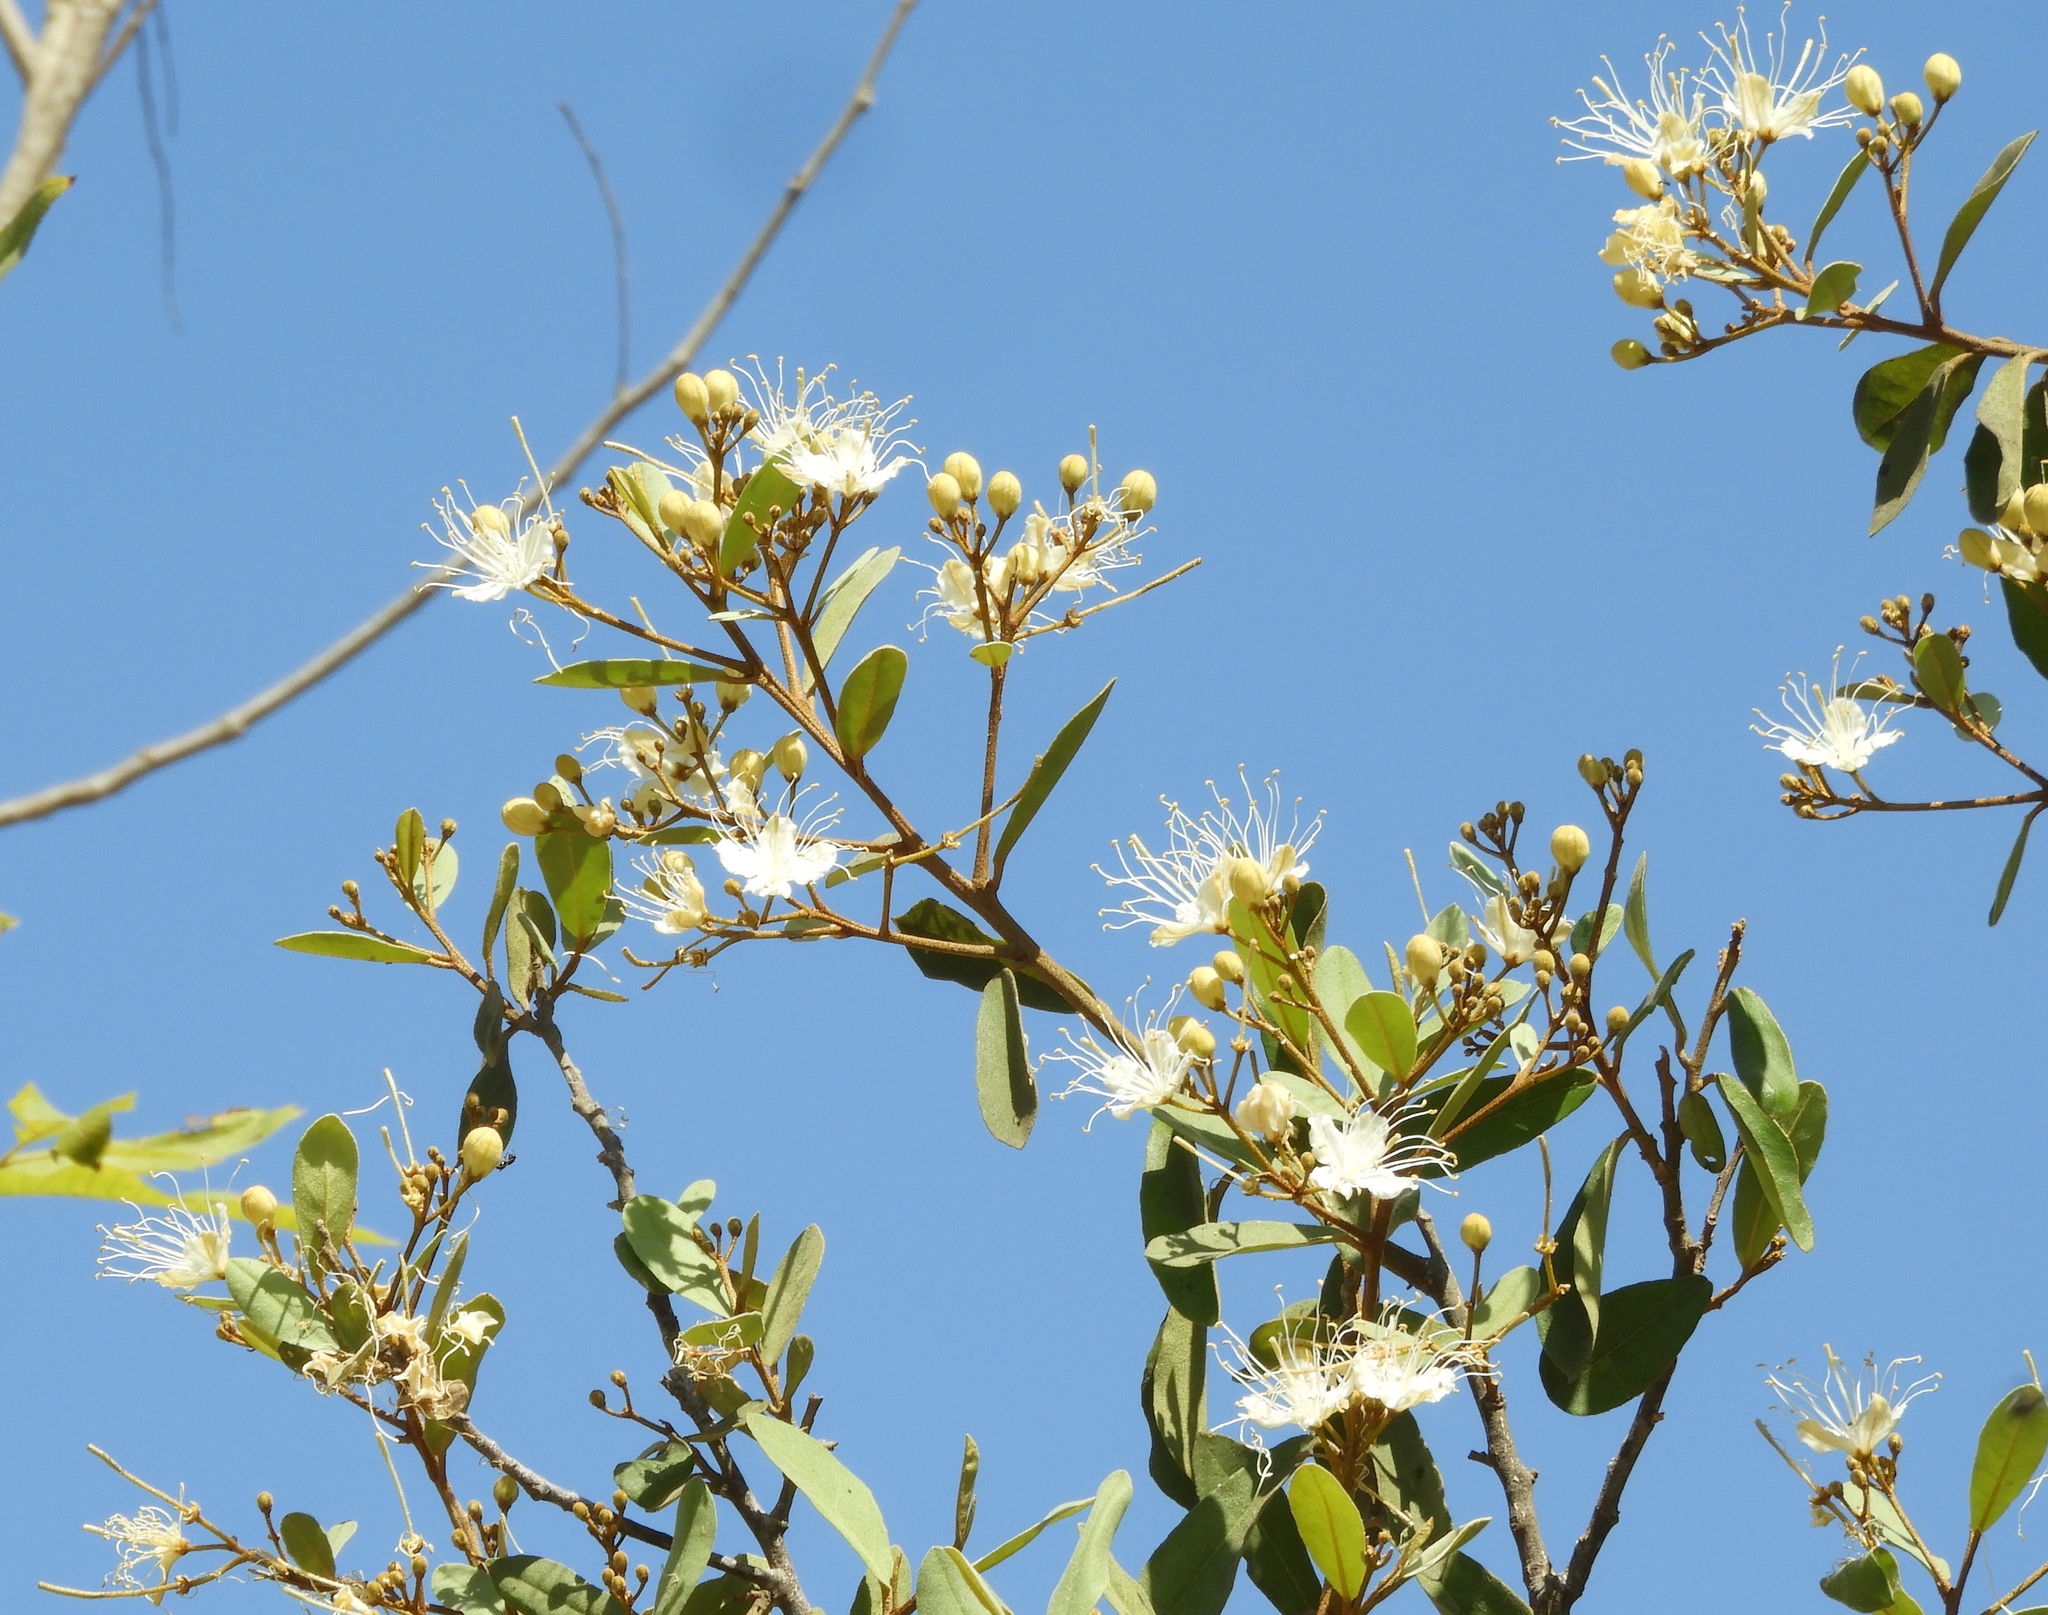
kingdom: Plantae
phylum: Tracheophyta
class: Magnoliopsida
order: Brassicales
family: Capparaceae
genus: Quadrella
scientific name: Quadrella indica
